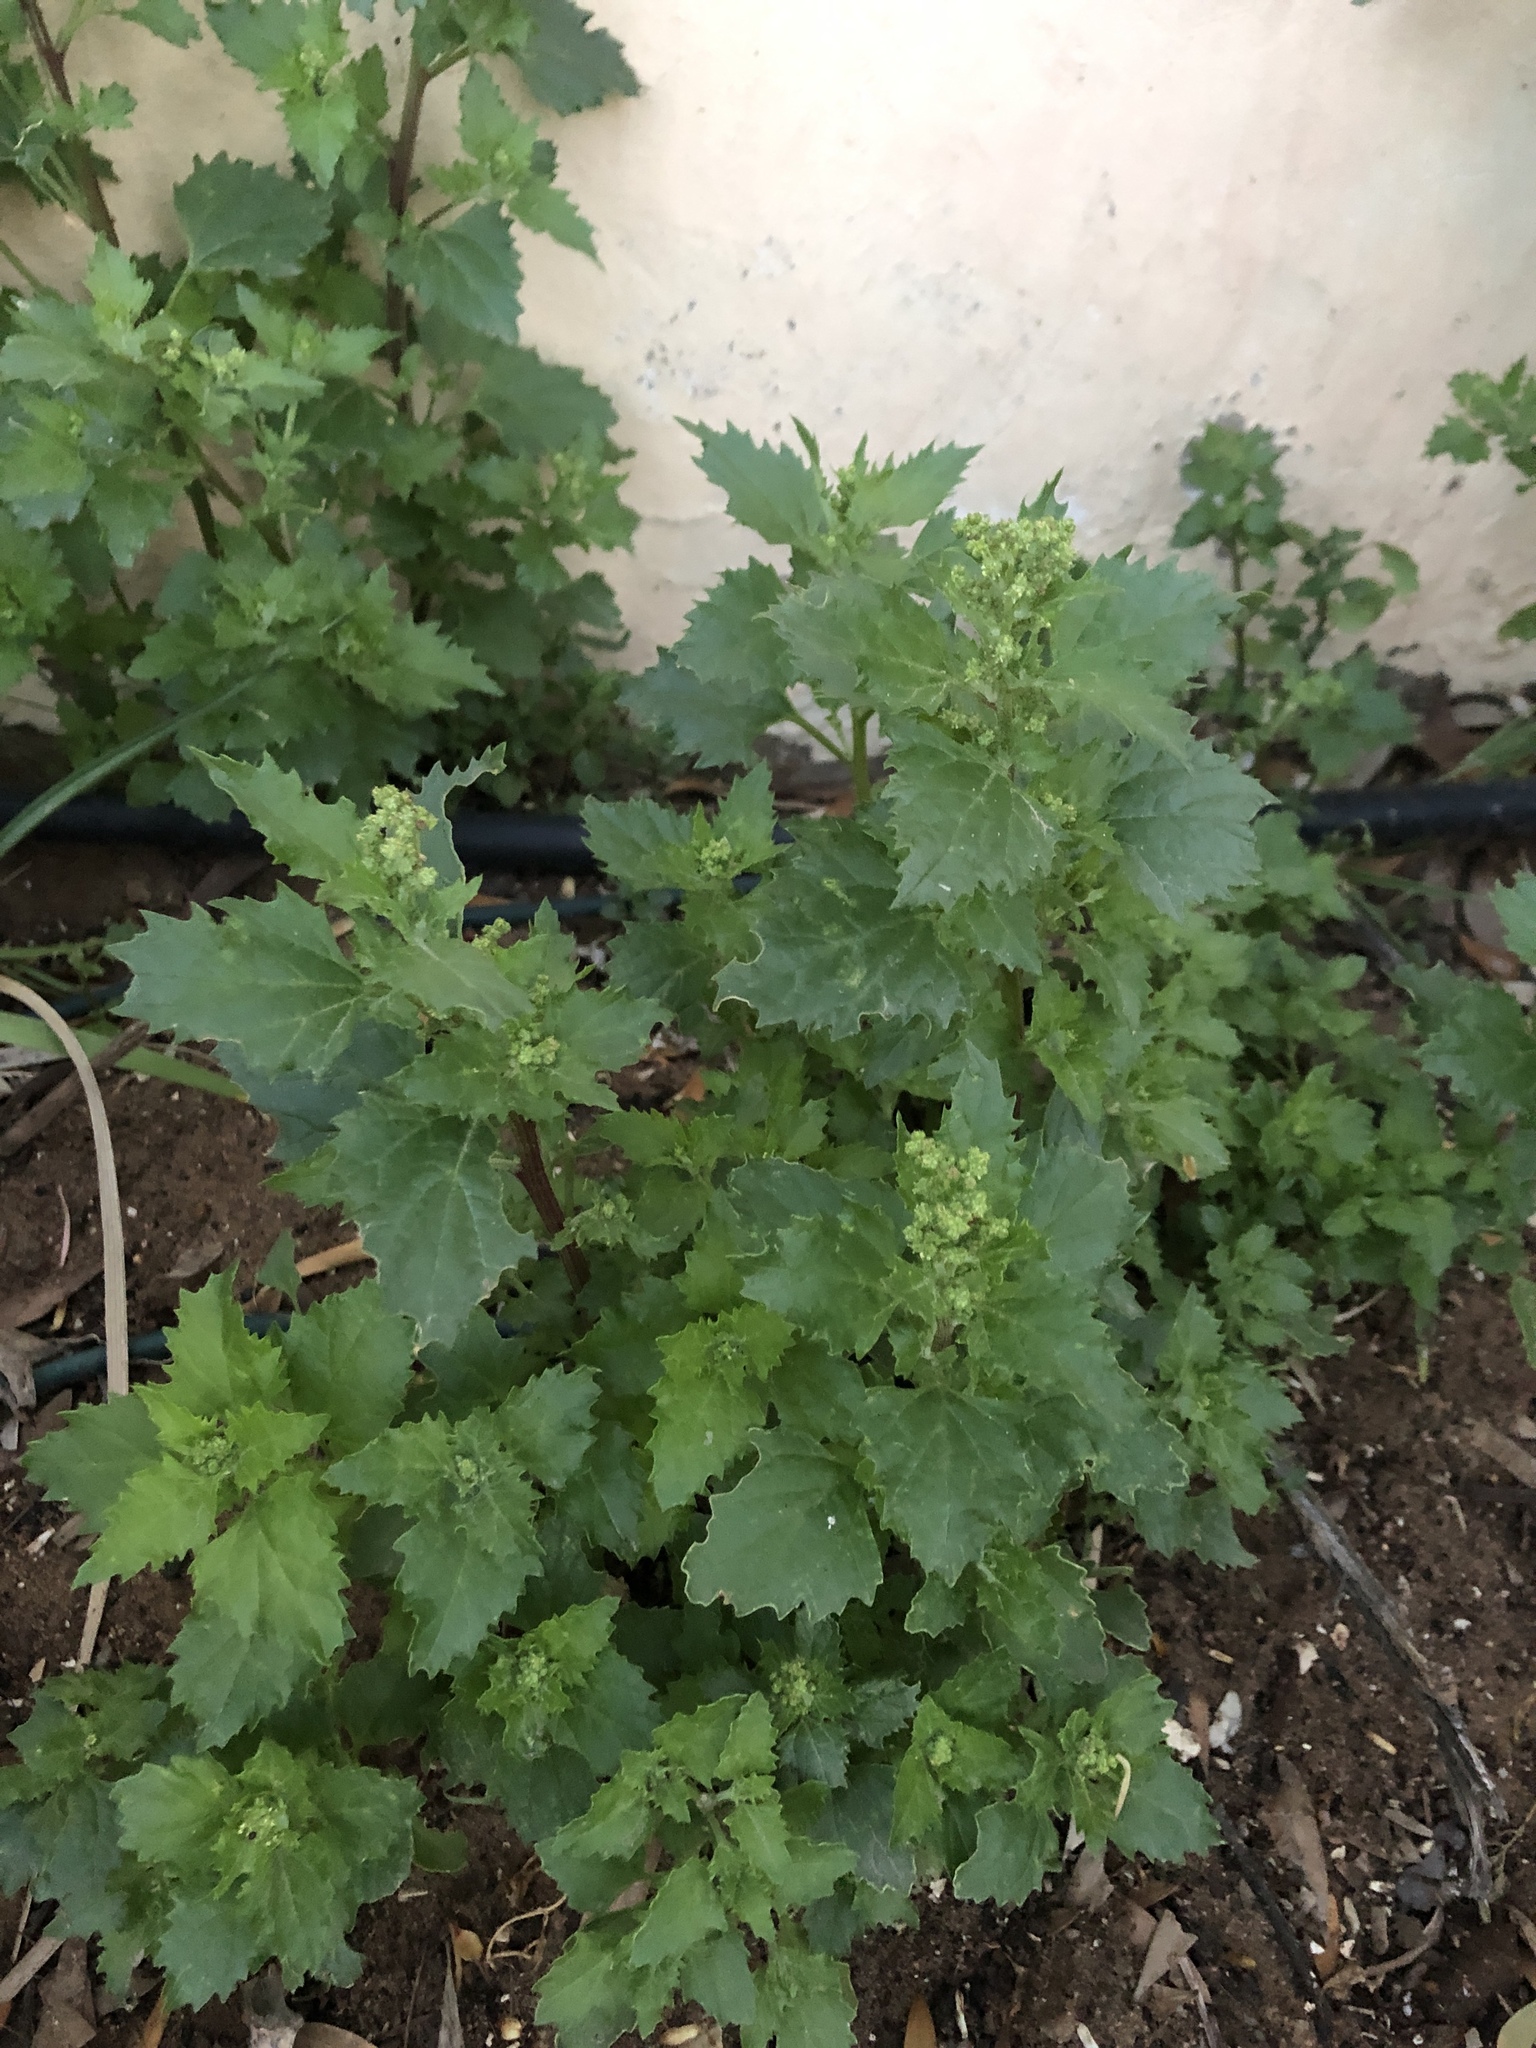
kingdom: Plantae
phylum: Tracheophyta
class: Magnoliopsida
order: Caryophyllales
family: Amaranthaceae
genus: Chenopodiastrum
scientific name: Chenopodiastrum murale
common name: Sowbane
